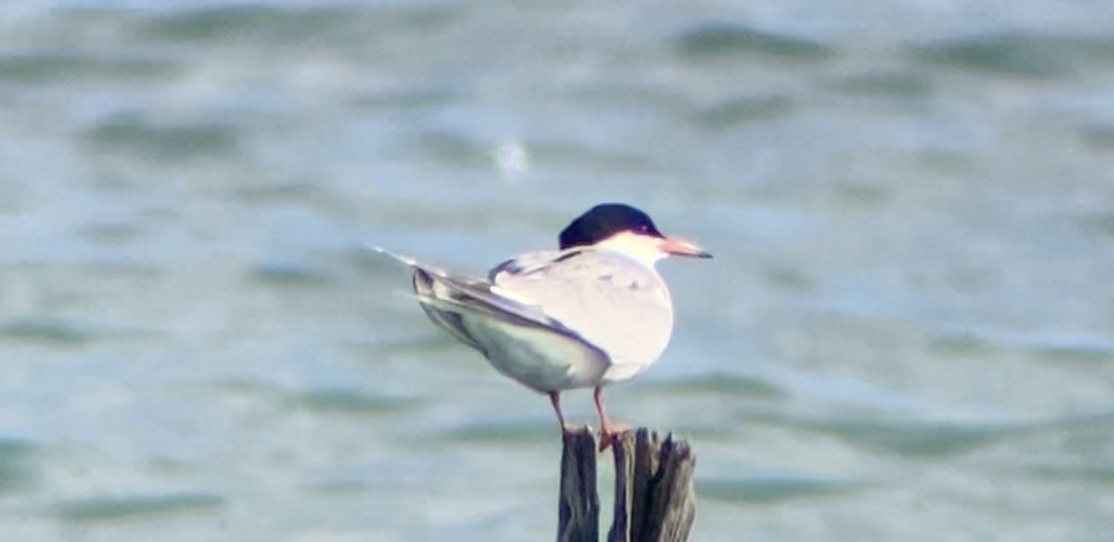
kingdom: Animalia
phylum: Chordata
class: Aves
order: Charadriiformes
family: Laridae
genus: Sterna
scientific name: Sterna hirundo
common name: Common tern
